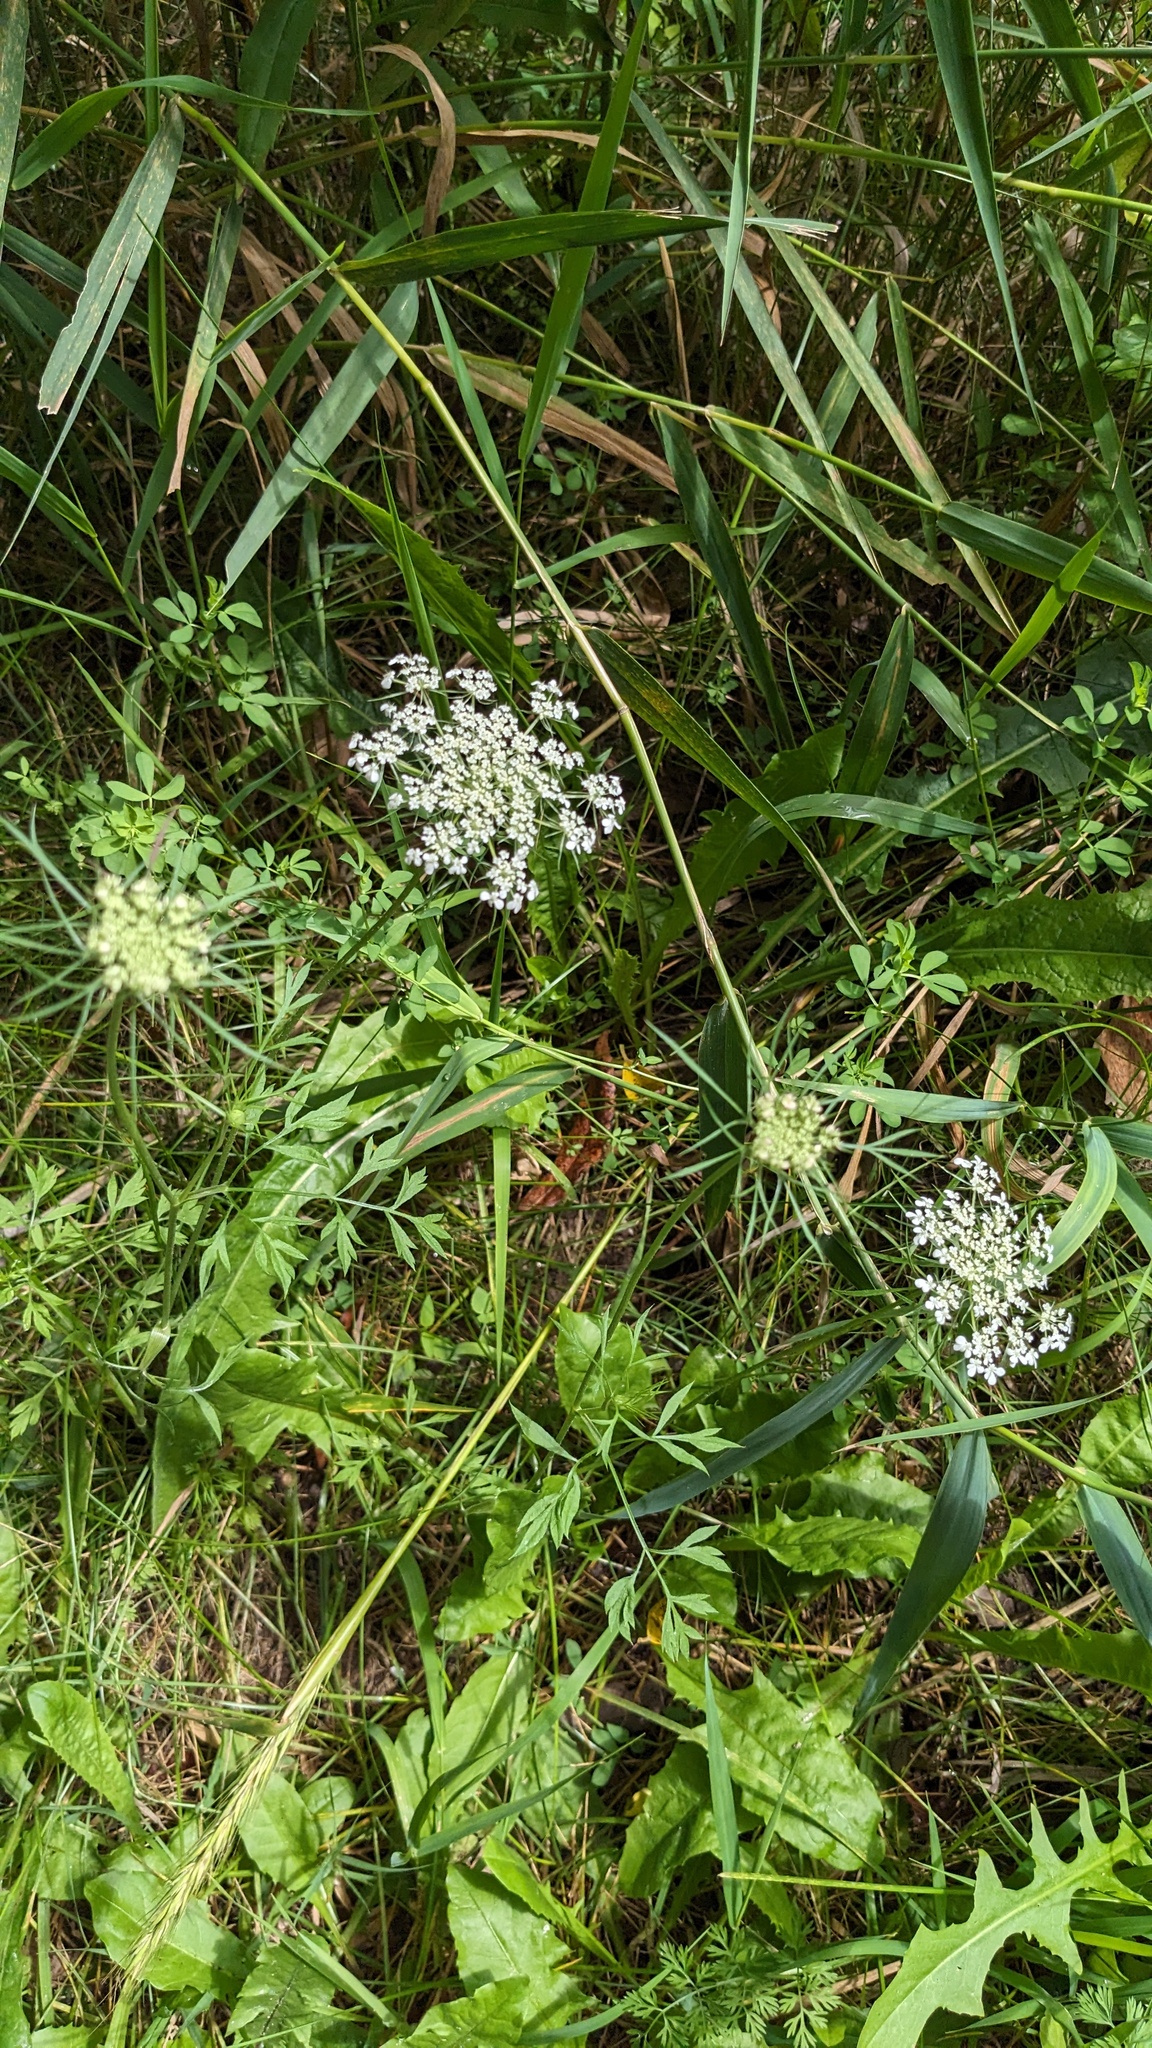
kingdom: Plantae
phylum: Tracheophyta
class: Magnoliopsida
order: Apiales
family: Apiaceae
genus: Daucus
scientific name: Daucus carota
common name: Wild carrot
